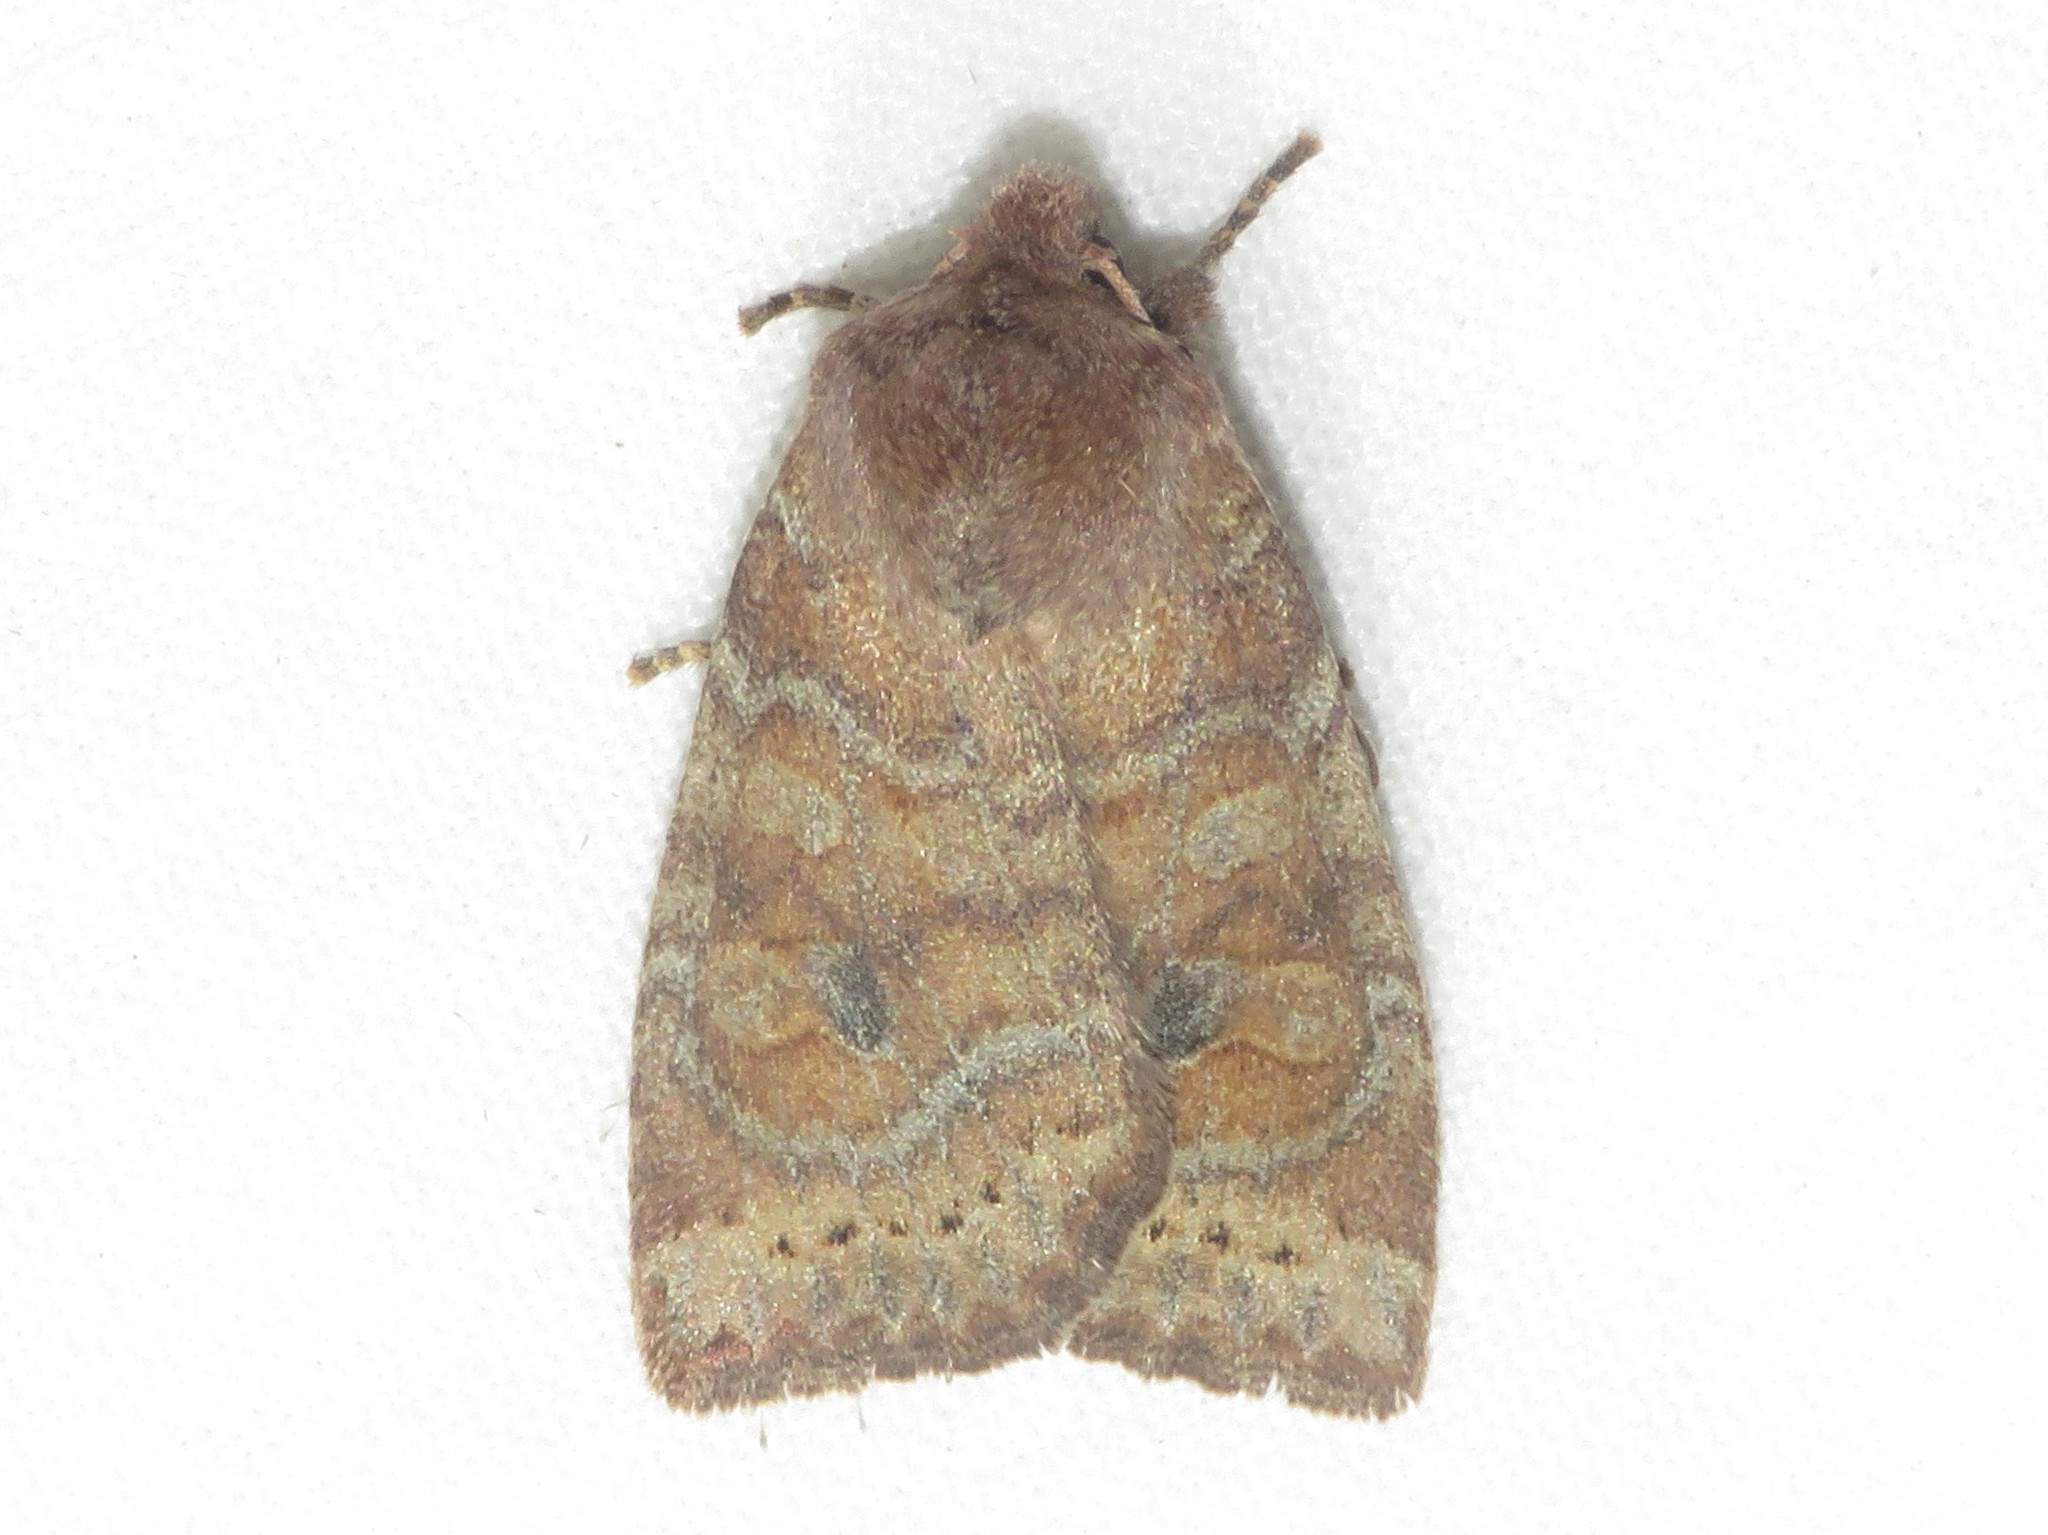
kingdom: Animalia
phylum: Arthropoda
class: Insecta
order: Lepidoptera
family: Noctuidae
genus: Anathix
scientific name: Anathix puta
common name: Puta sallow
